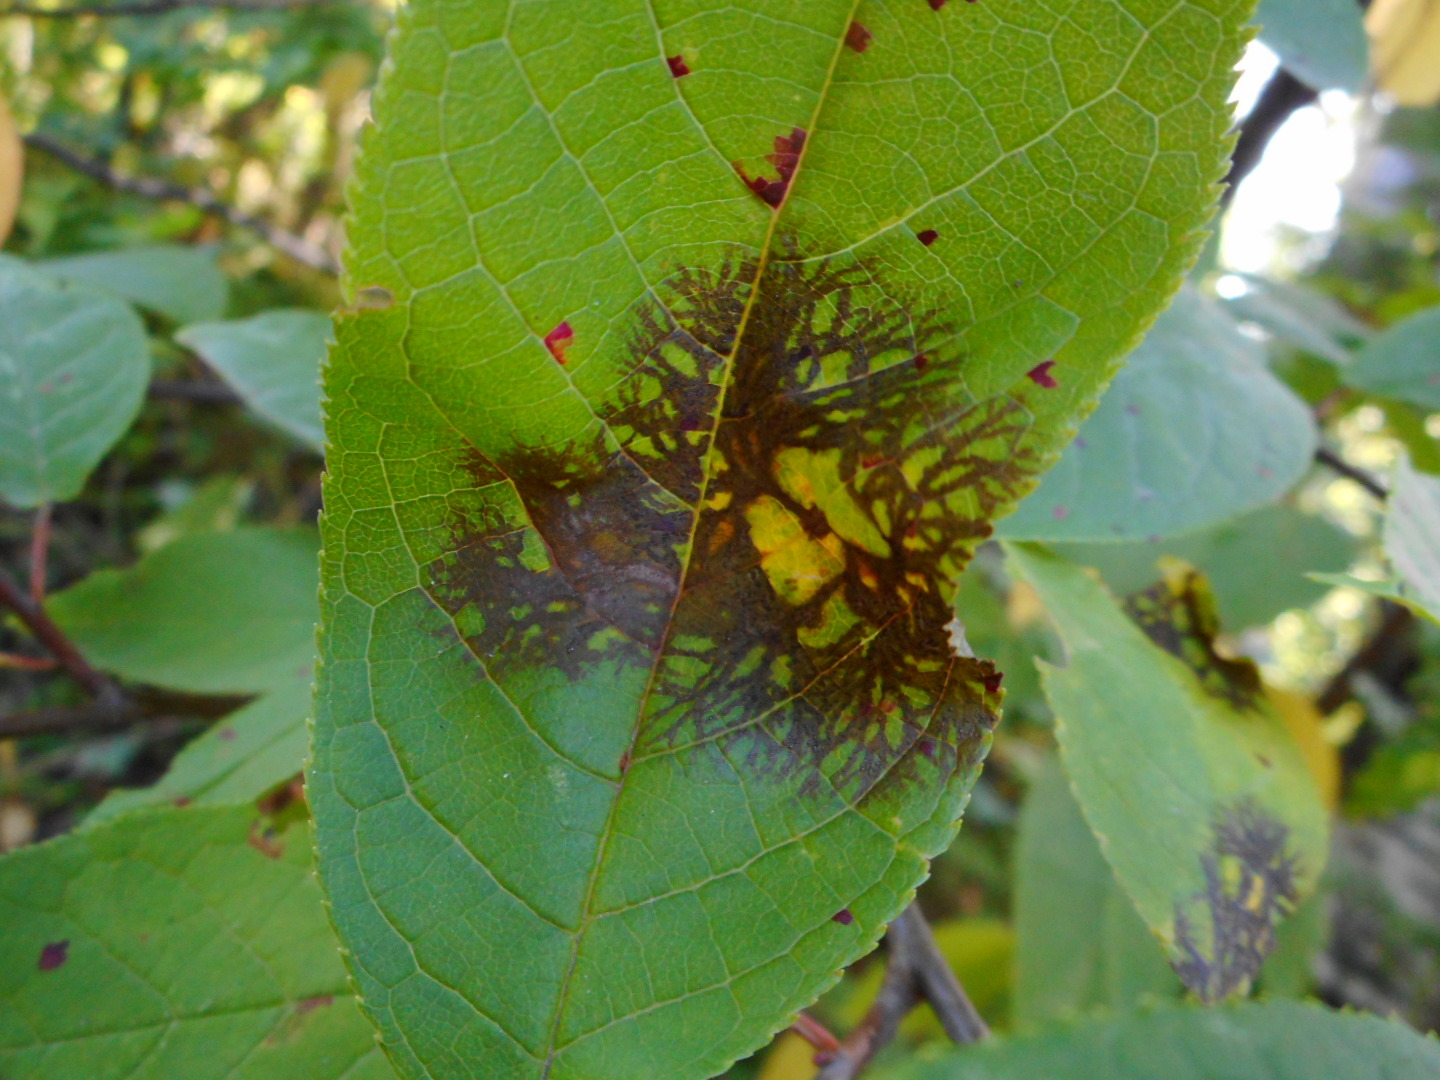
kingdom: Fungi
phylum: Ascomycota
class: Sordariomycetes
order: Diaporthales
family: Gnomoniaceae
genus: Asteroma
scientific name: Asteroma padi
